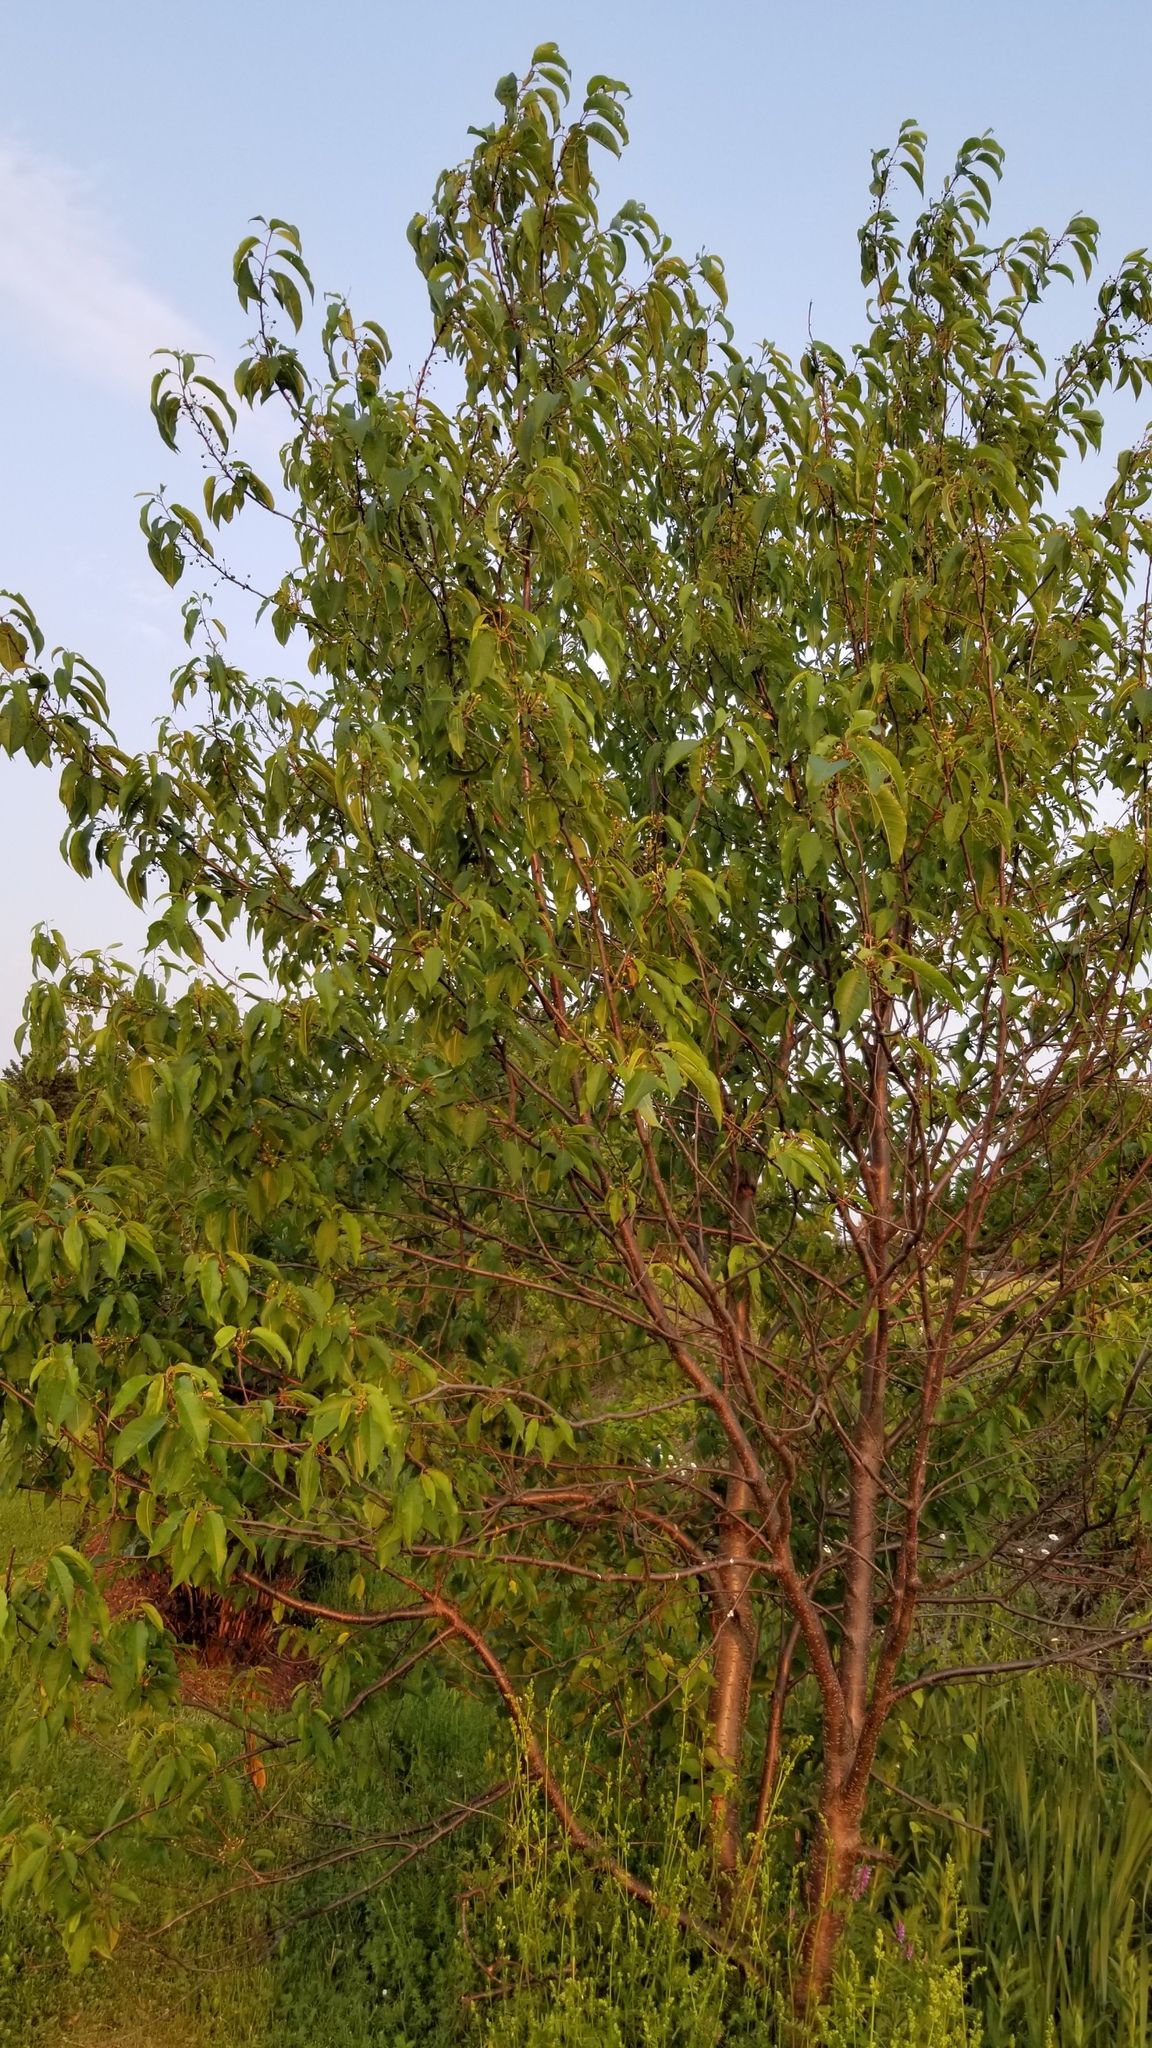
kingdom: Plantae
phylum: Tracheophyta
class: Magnoliopsida
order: Rosales
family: Rosaceae
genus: Prunus
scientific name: Prunus pensylvanica
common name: Pin cherry
